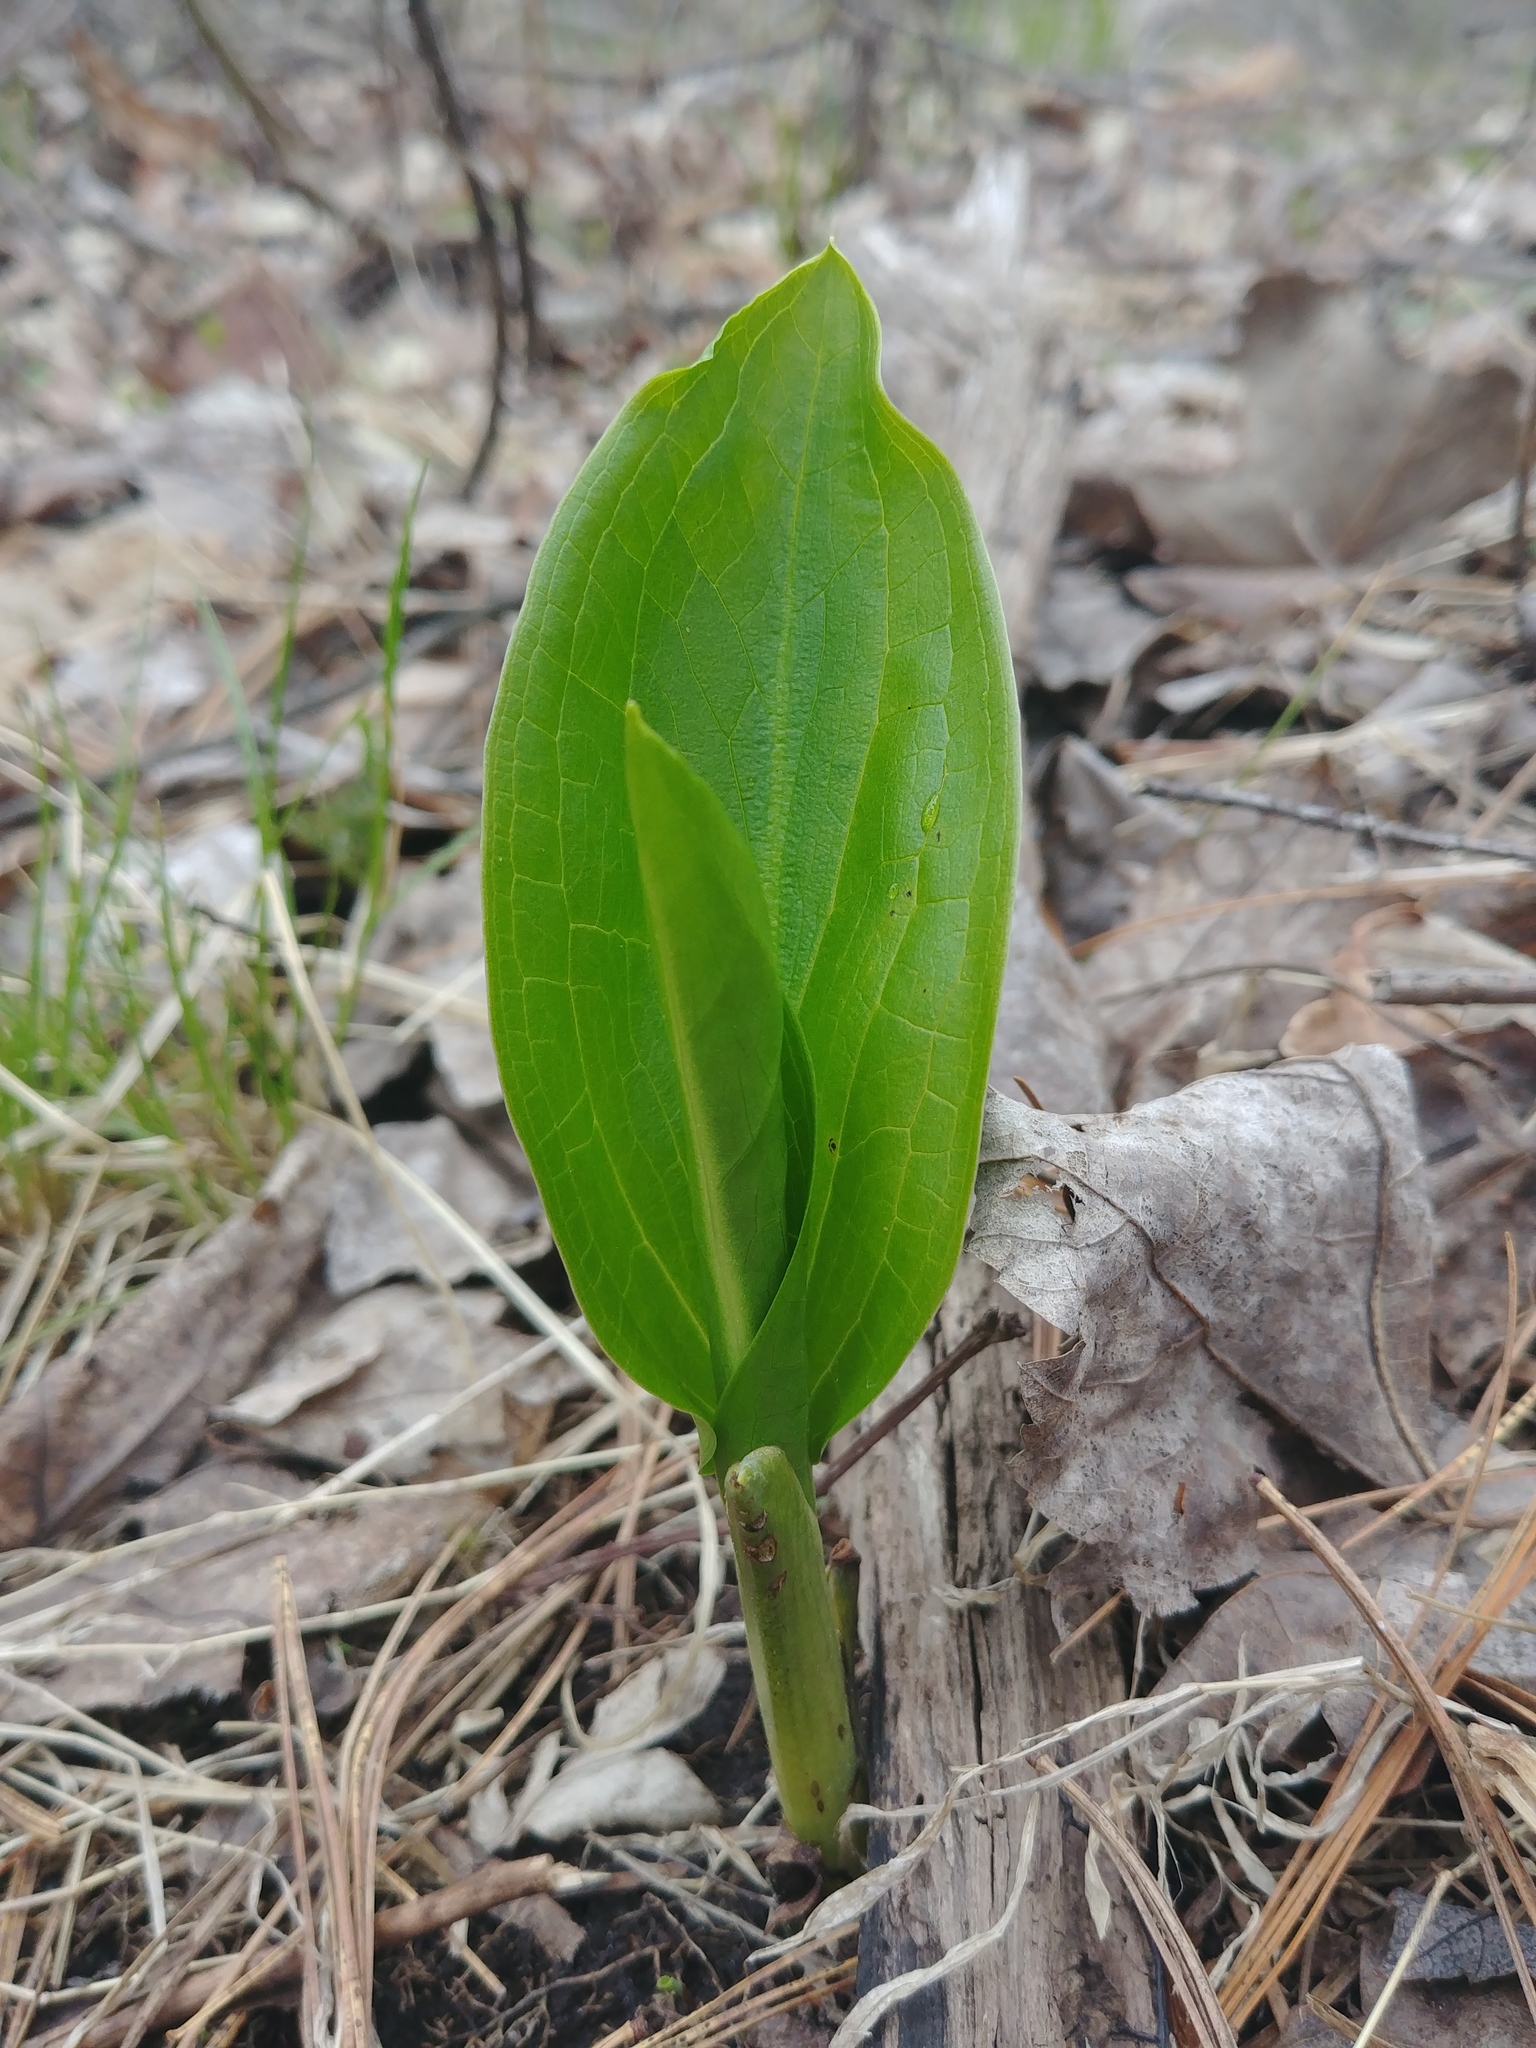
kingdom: Plantae
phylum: Tracheophyta
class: Liliopsida
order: Alismatales
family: Araceae
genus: Symplocarpus
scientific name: Symplocarpus foetidus
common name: Eastern skunk cabbage
